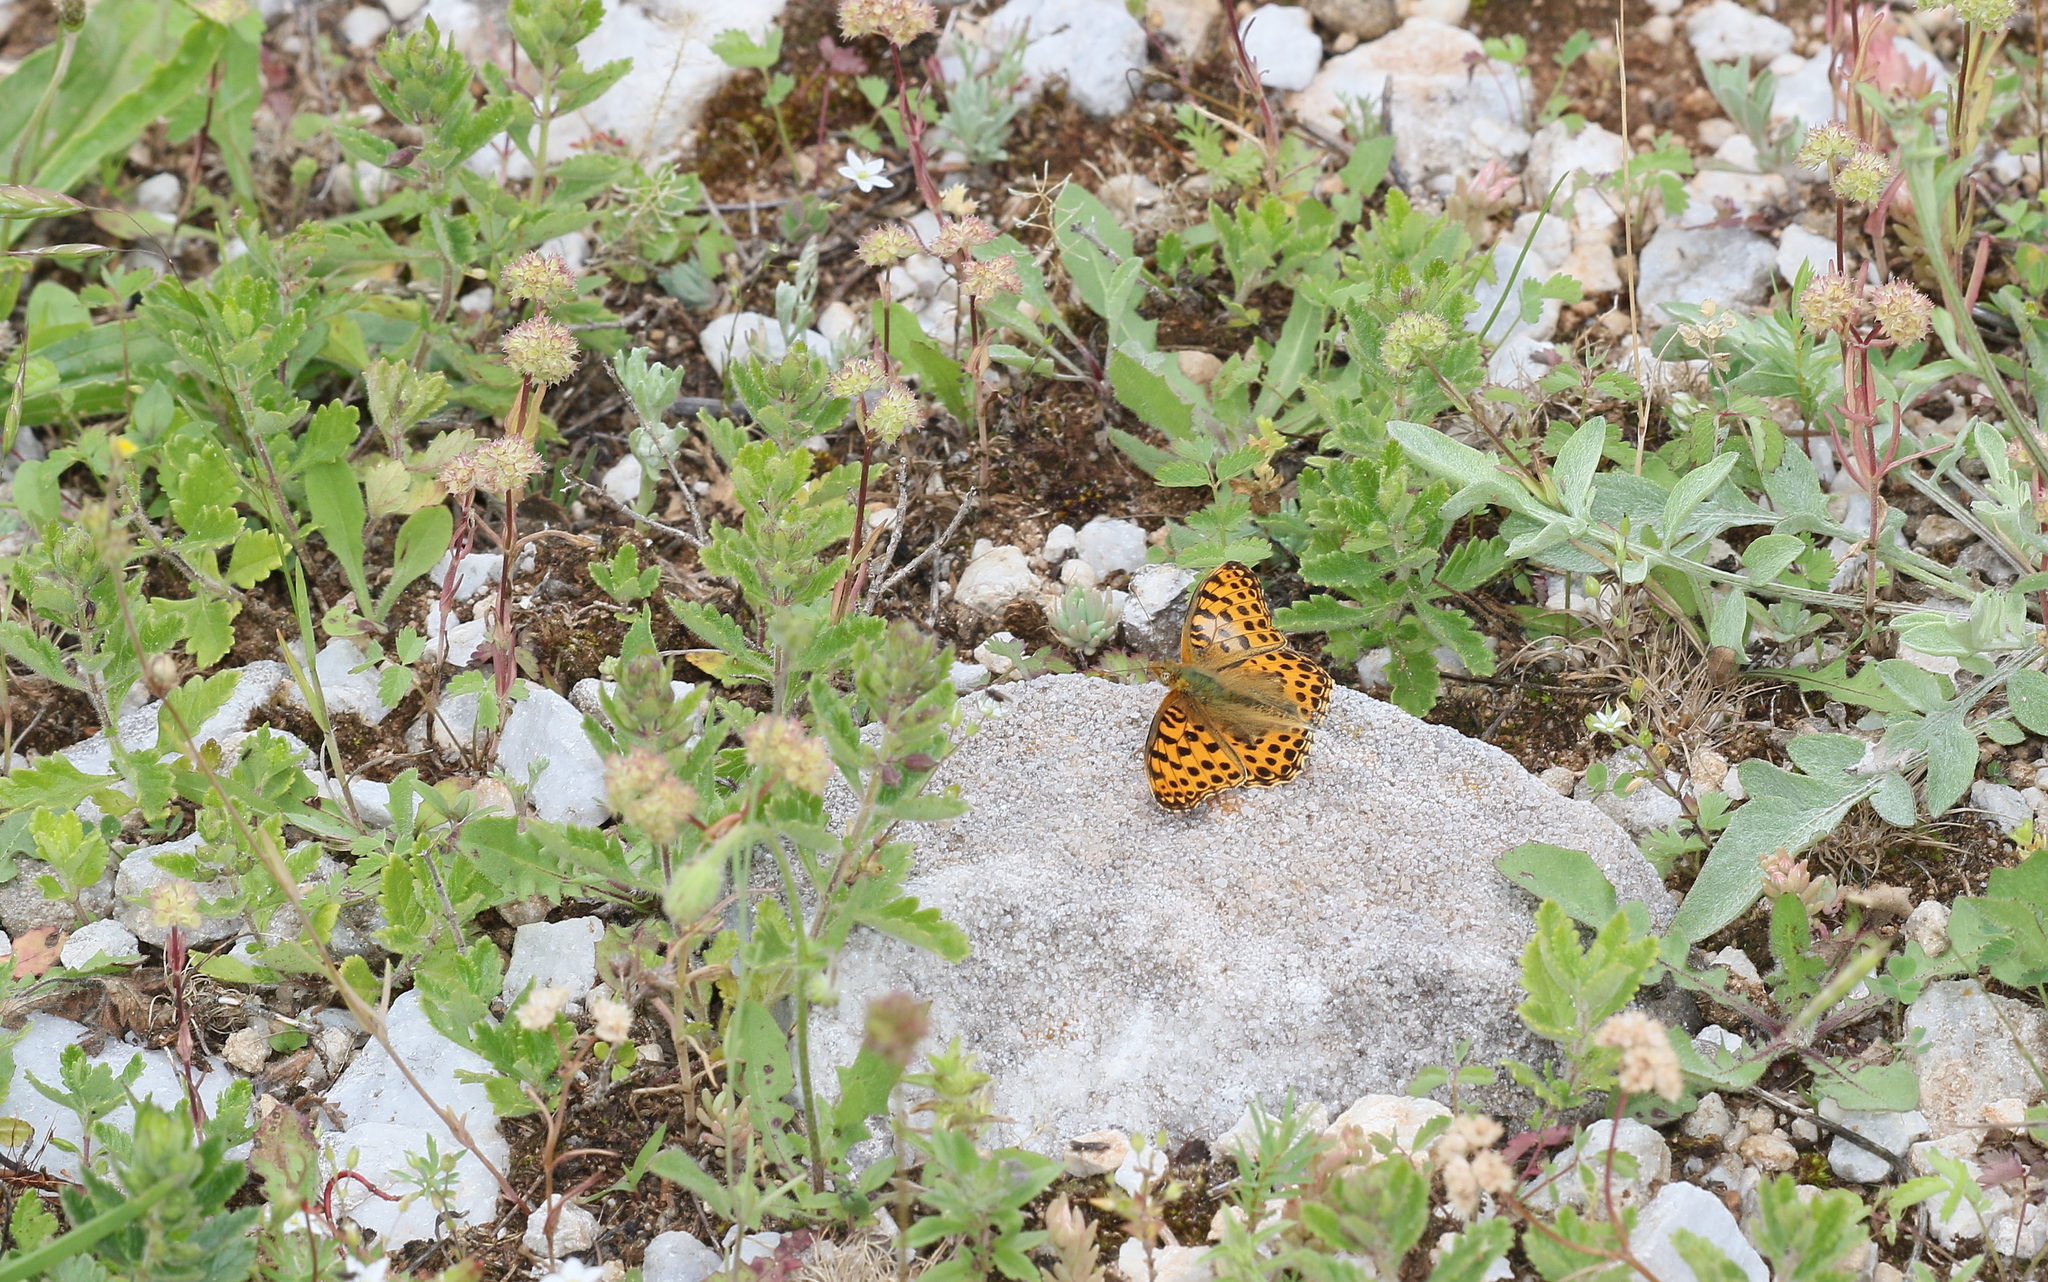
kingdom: Animalia
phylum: Arthropoda
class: Insecta
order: Lepidoptera
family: Nymphalidae
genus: Issoria
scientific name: Issoria lathonia
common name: Queen of spain fritillary
